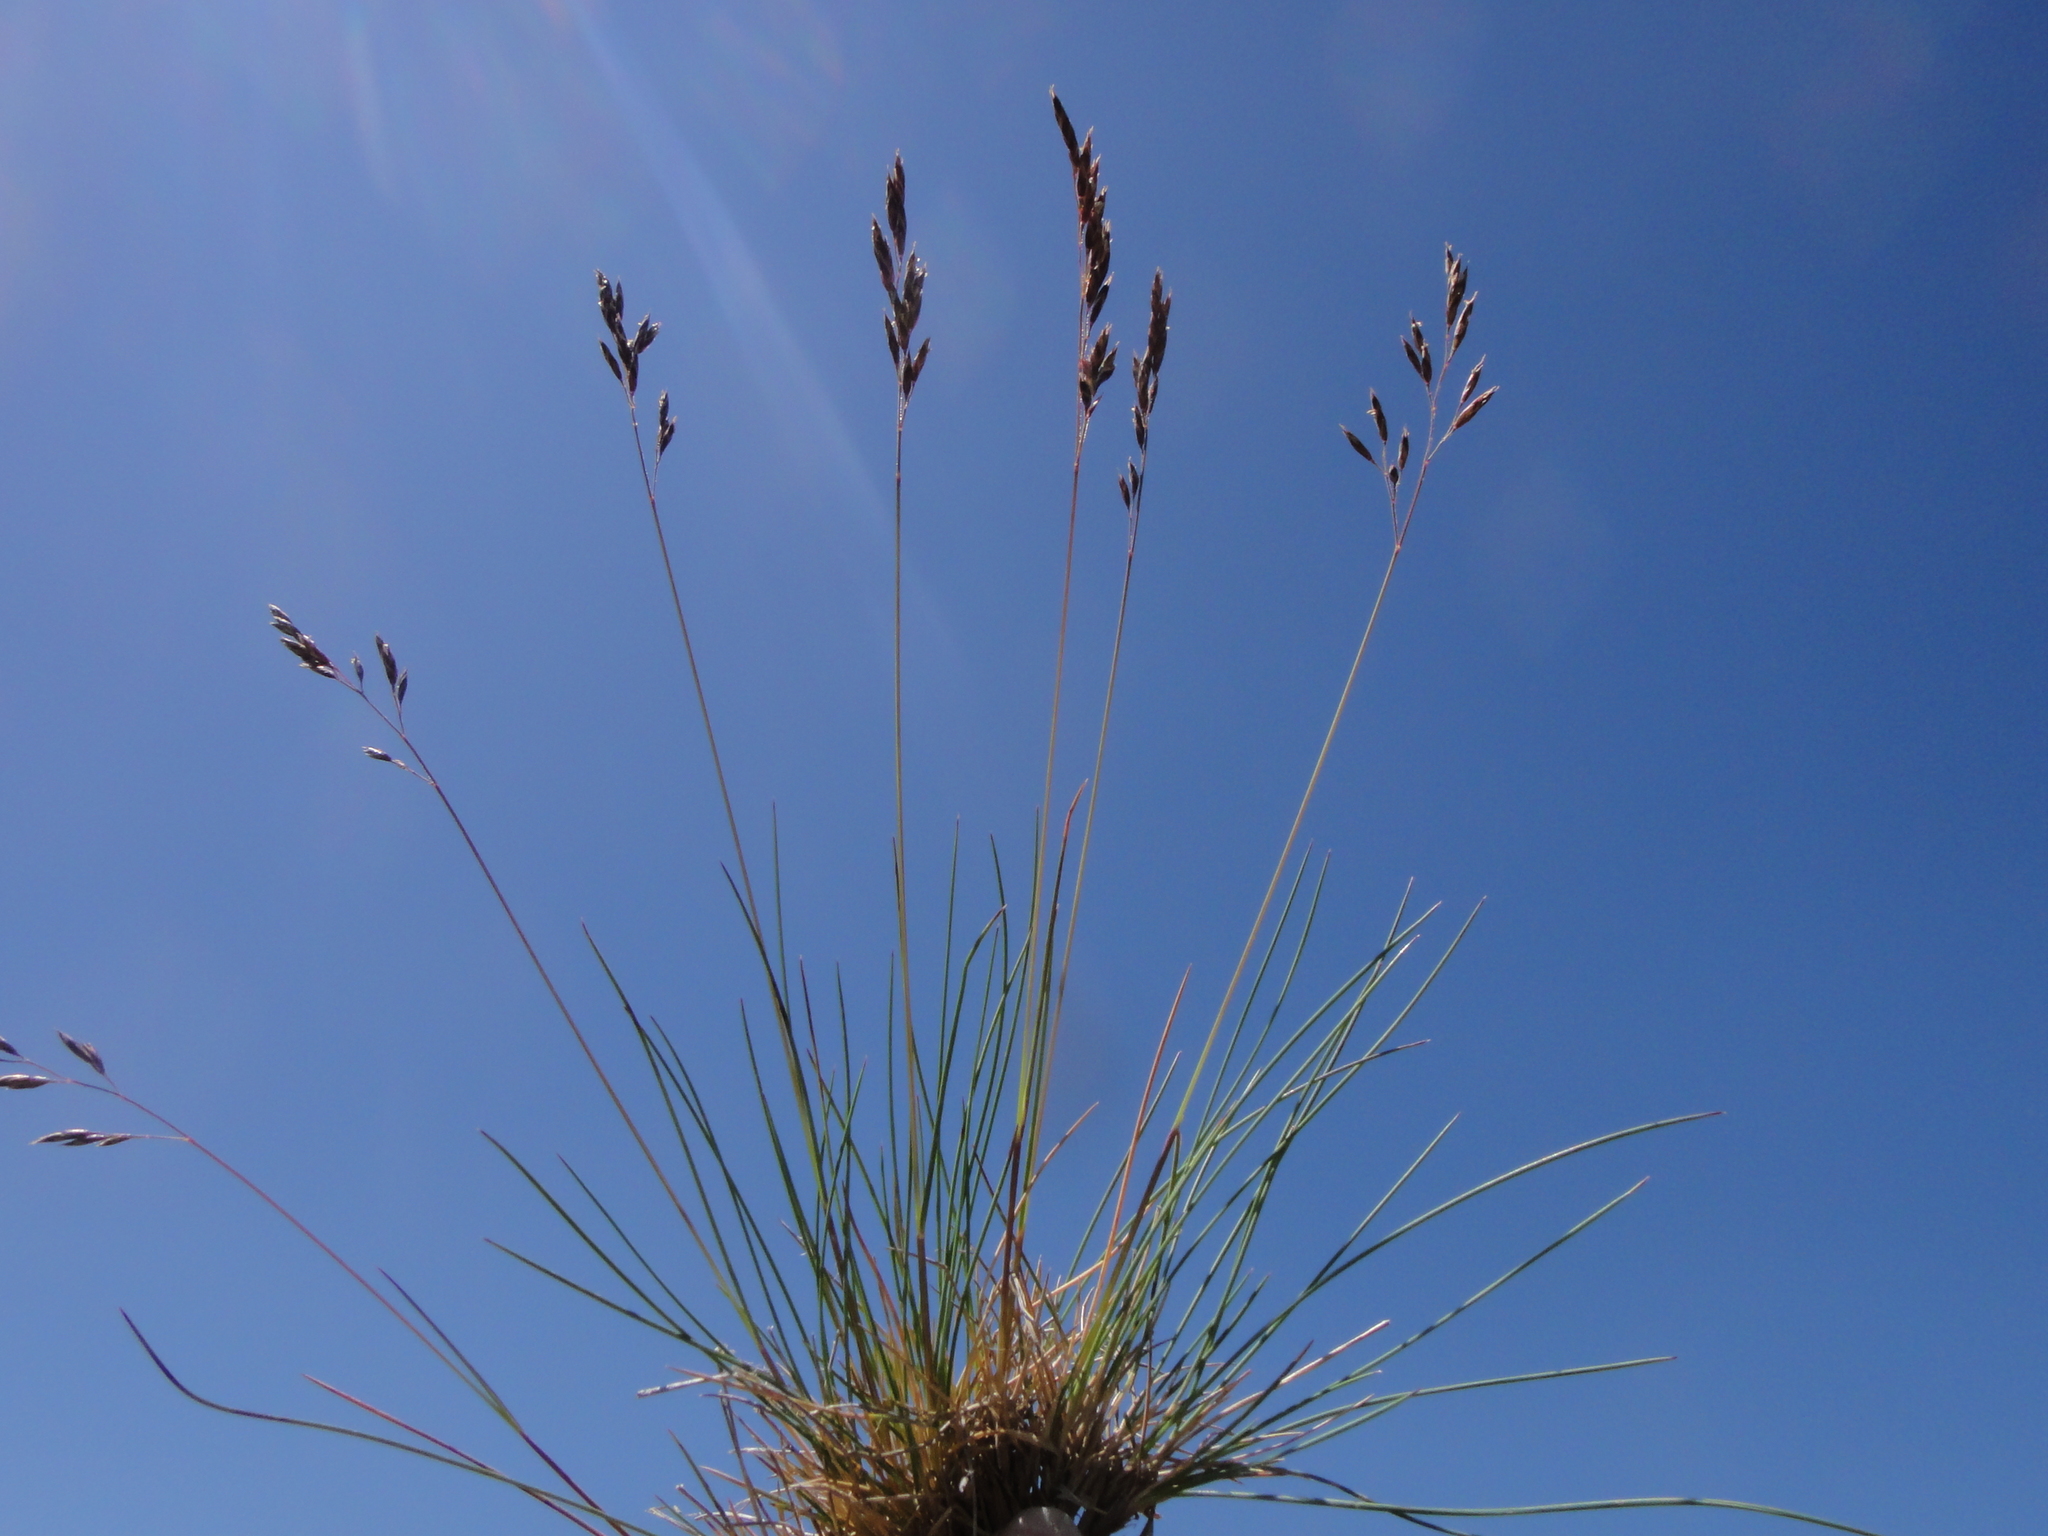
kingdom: Plantae
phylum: Tracheophyta
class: Liliopsida
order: Poales
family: Poaceae
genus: Festuca
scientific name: Festuca varia
